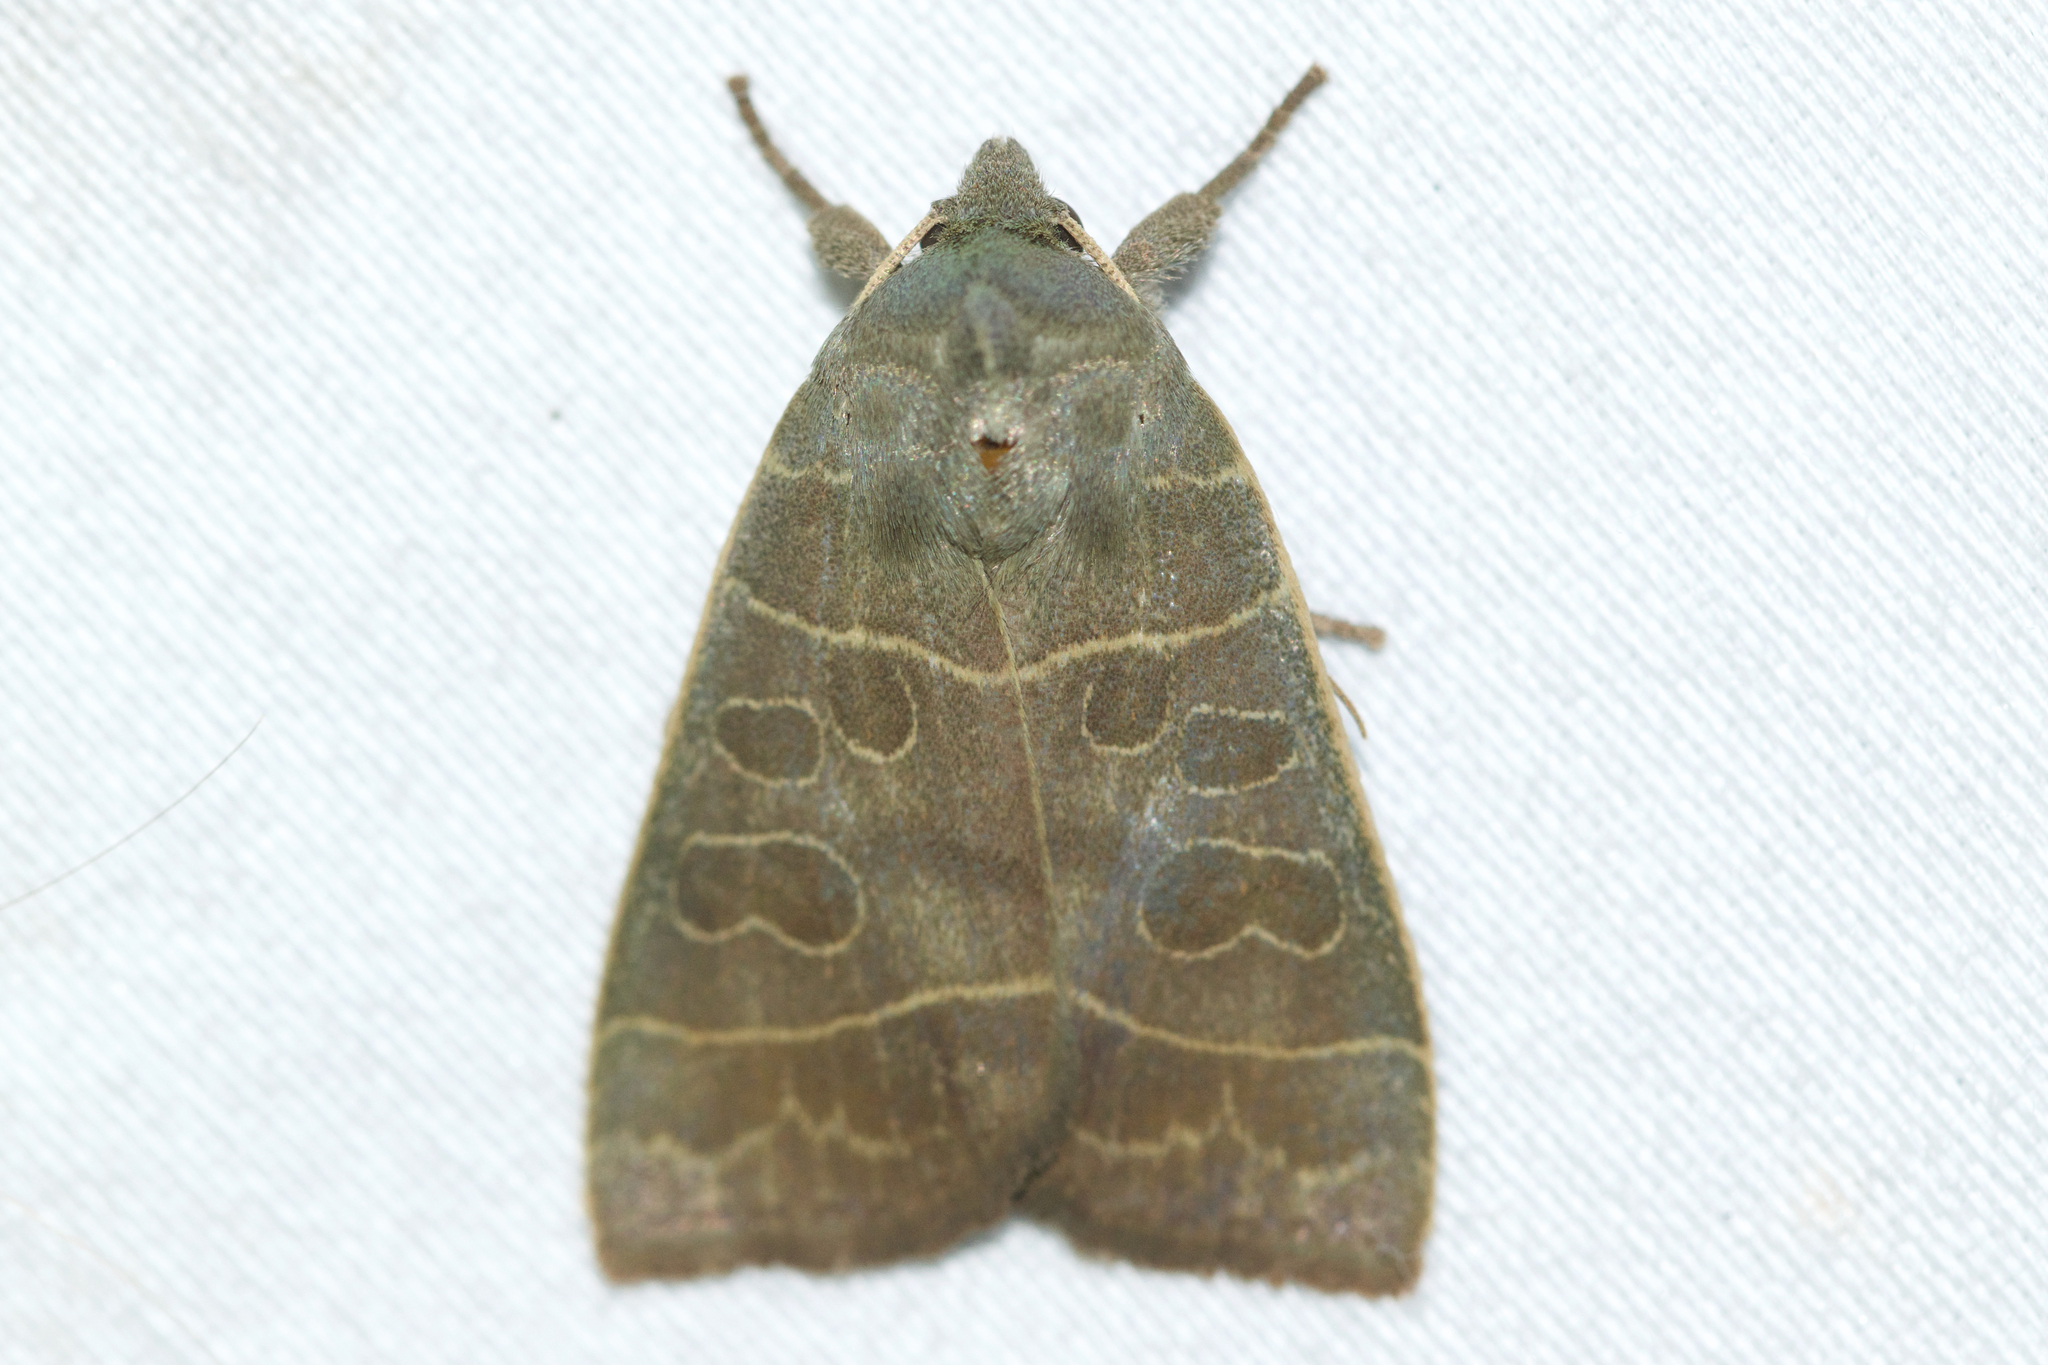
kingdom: Animalia
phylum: Arthropoda
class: Insecta
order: Lepidoptera
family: Noctuidae
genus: Ipimorpha
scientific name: Ipimorpha pleonectusa
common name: Even-lined sallow
